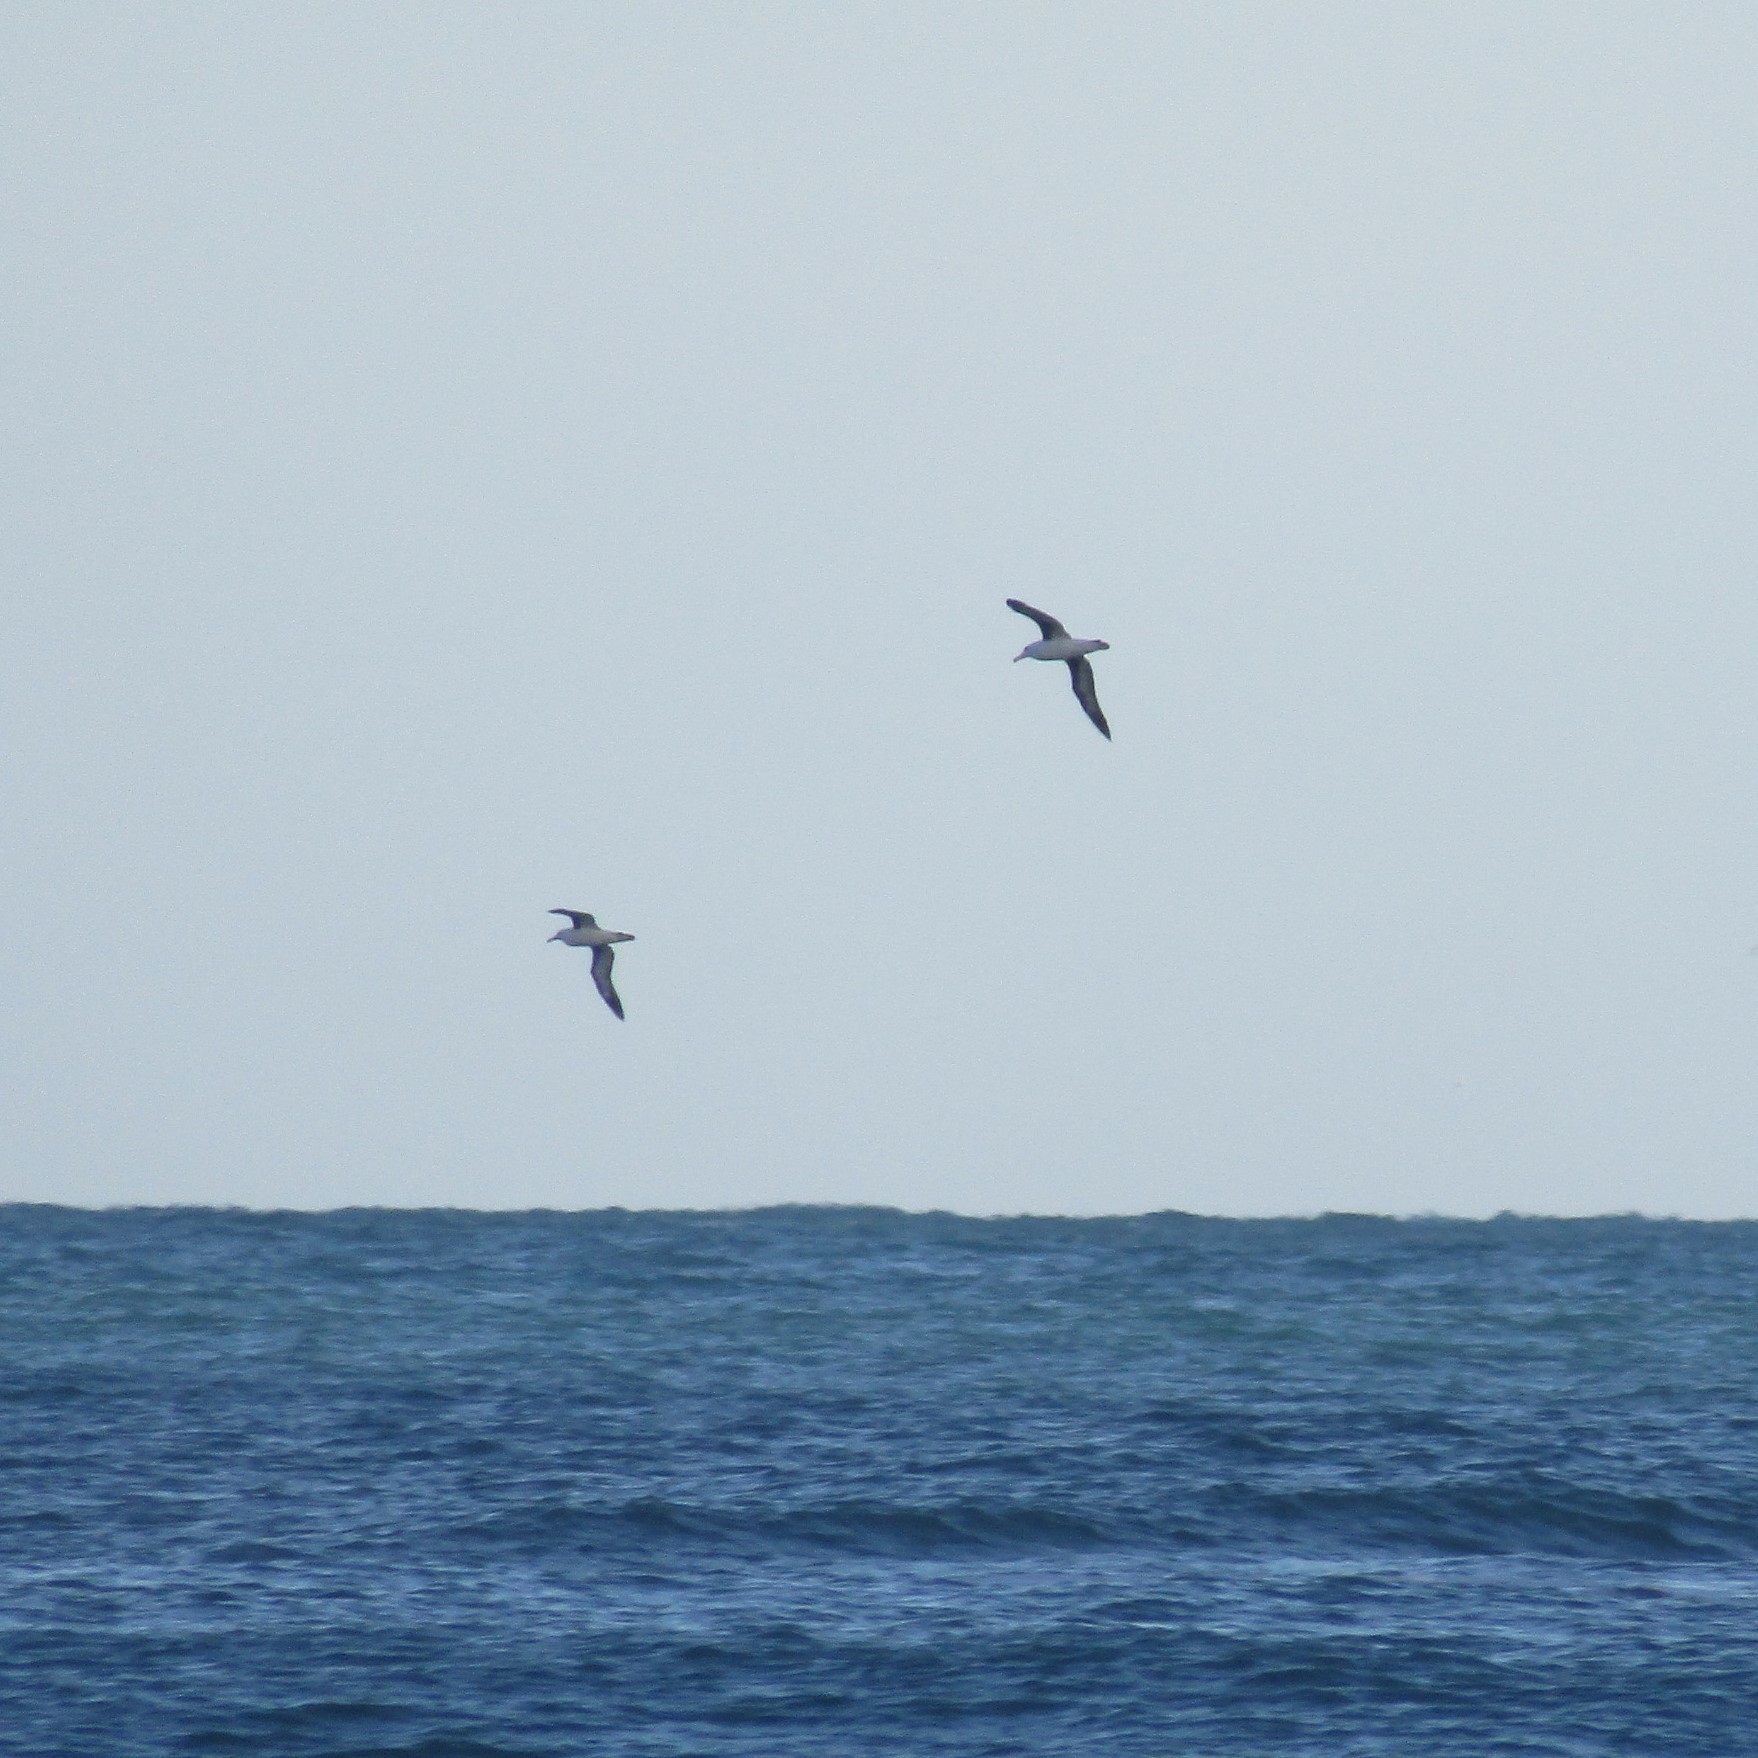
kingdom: Animalia
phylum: Chordata
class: Aves
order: Procellariiformes
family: Diomedeidae
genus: Thalassarche
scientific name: Thalassarche melanophris
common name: Black-browed albatross
